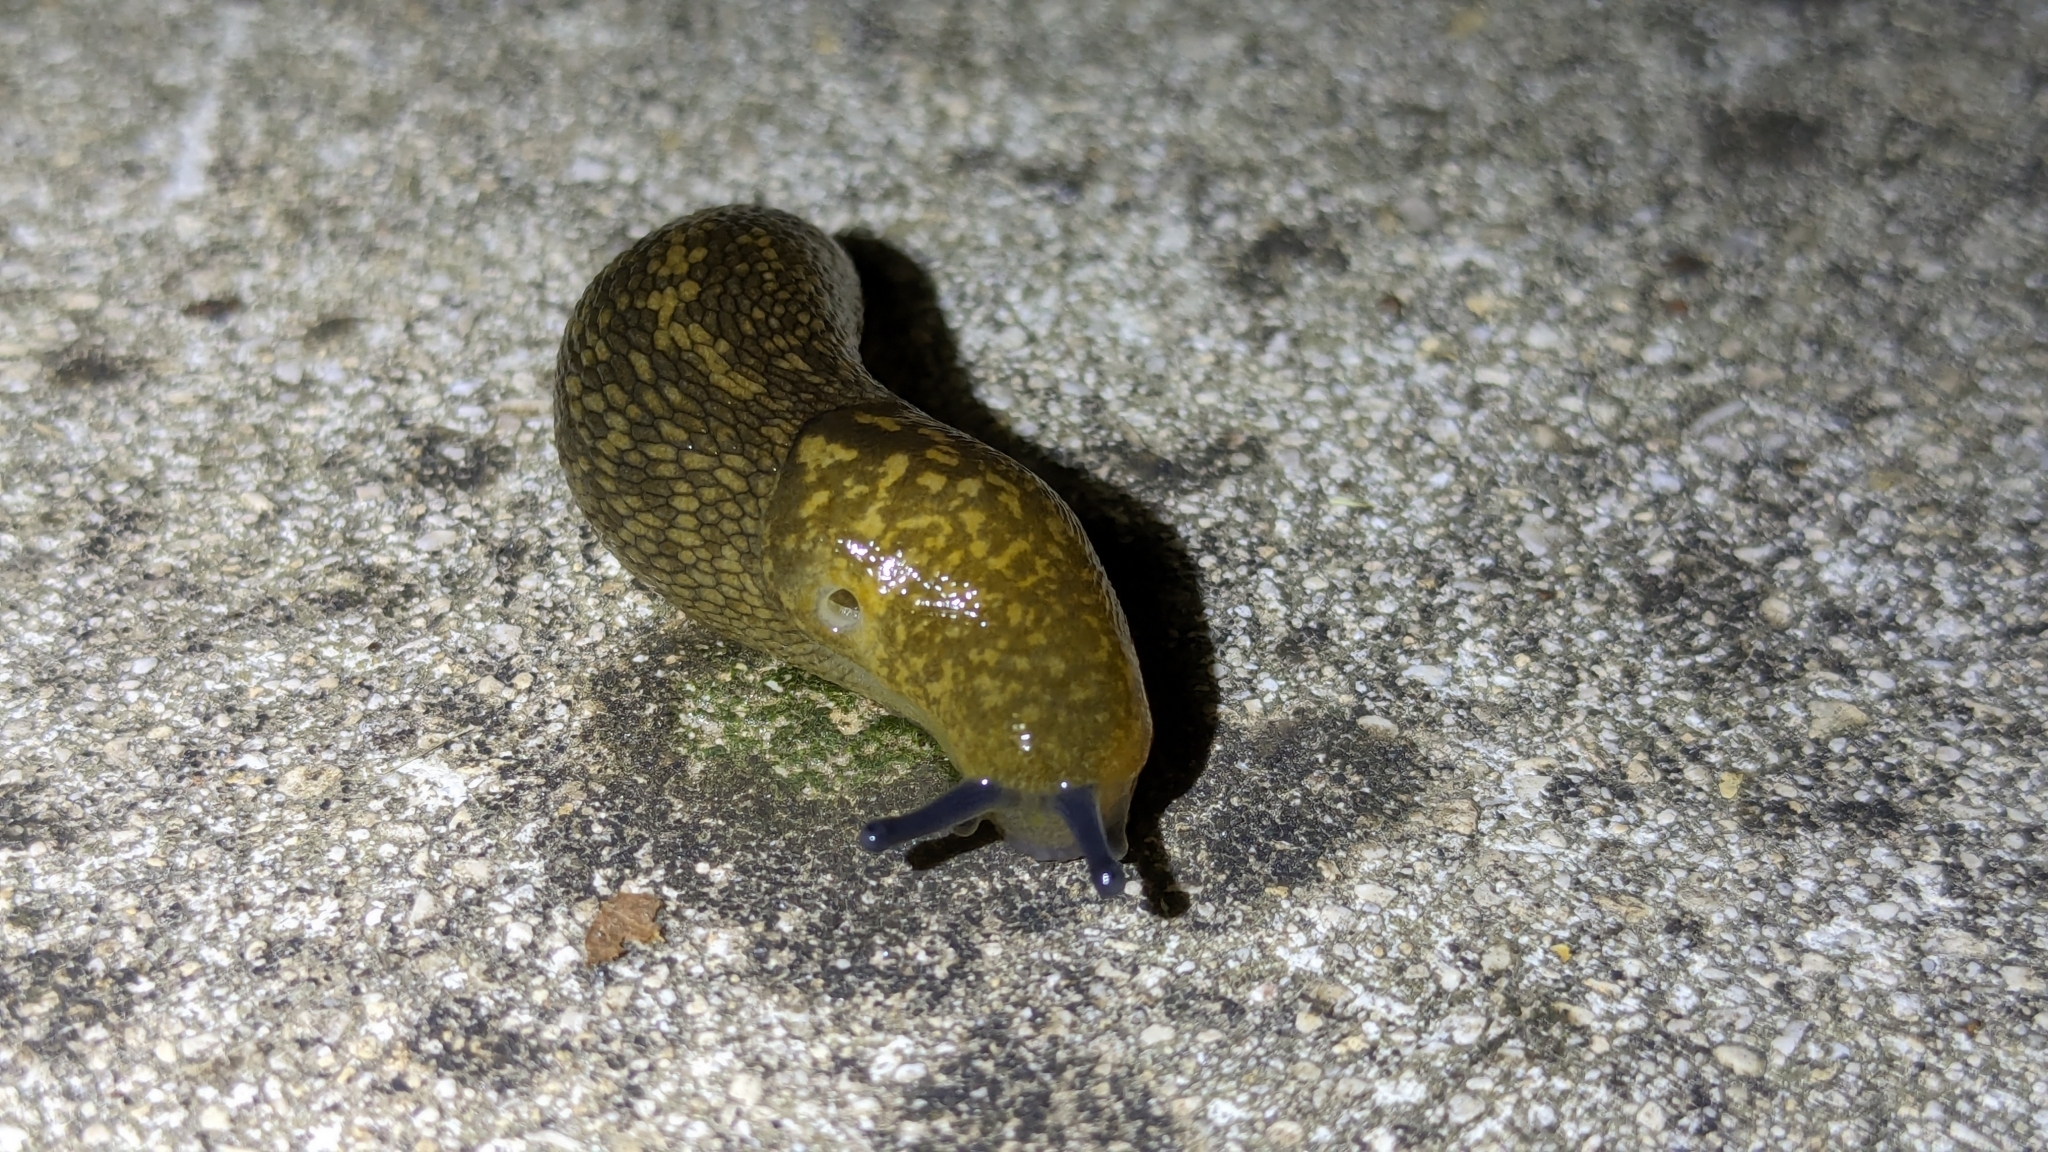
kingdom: Animalia
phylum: Mollusca
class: Gastropoda
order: Stylommatophora
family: Limacidae
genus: Limacus
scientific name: Limacus flavus
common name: Yellow gardenslug
